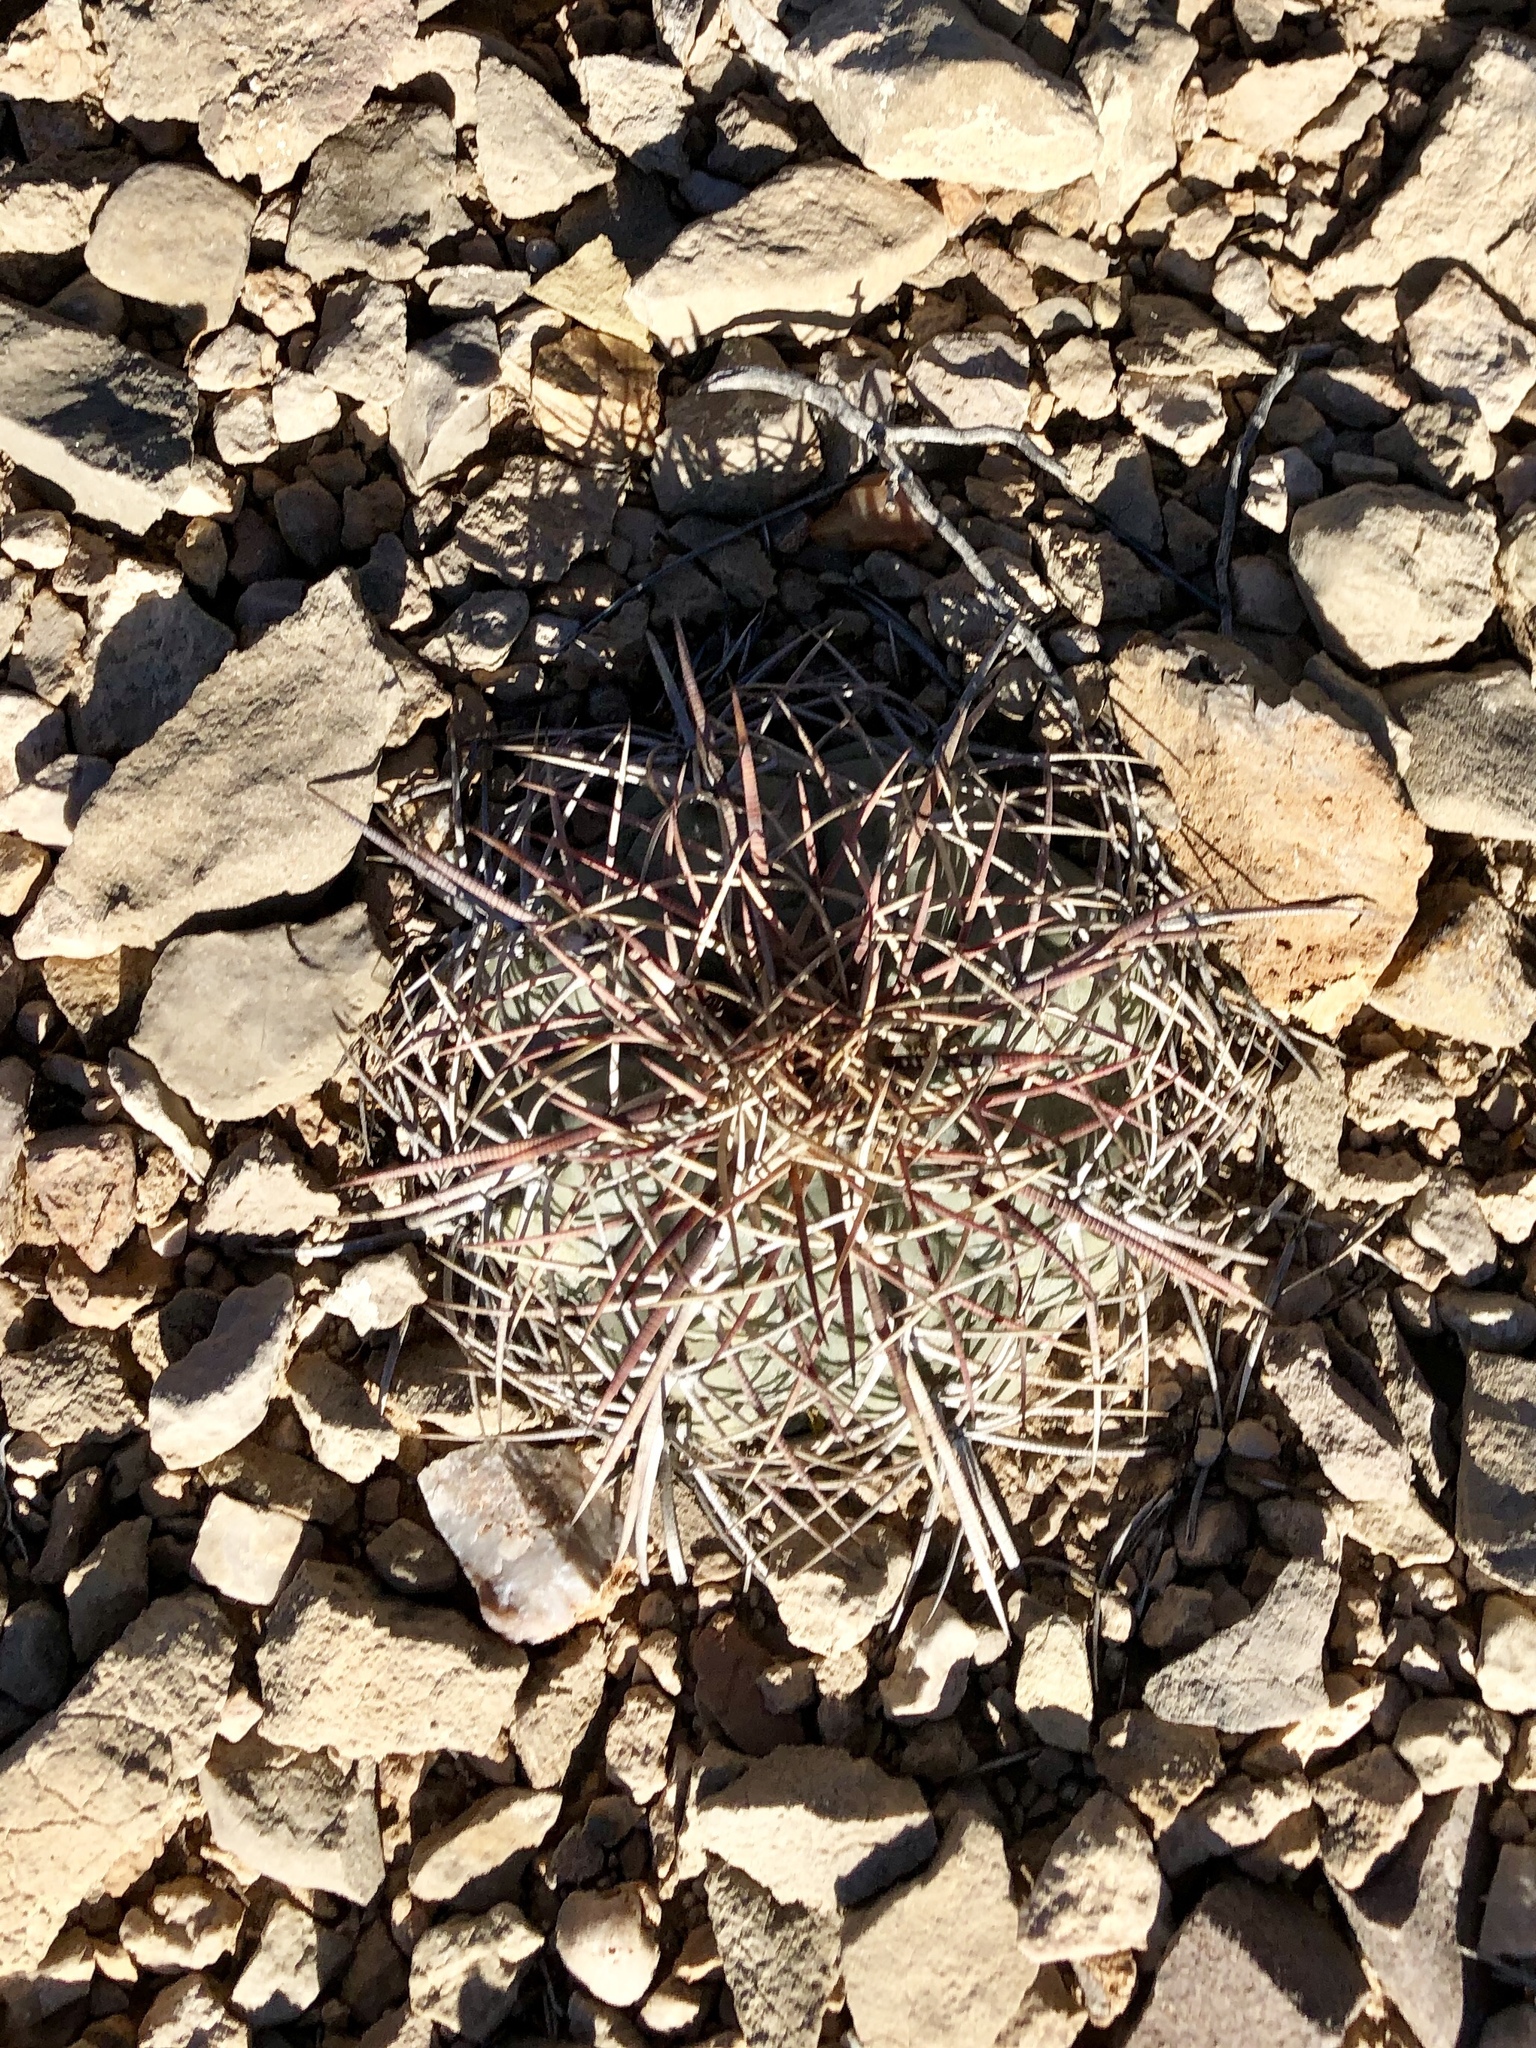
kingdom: Plantae
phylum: Tracheophyta
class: Magnoliopsida
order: Caryophyllales
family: Cactaceae
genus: Echinocactus
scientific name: Echinocactus horizonthalonius
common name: Devilshead
